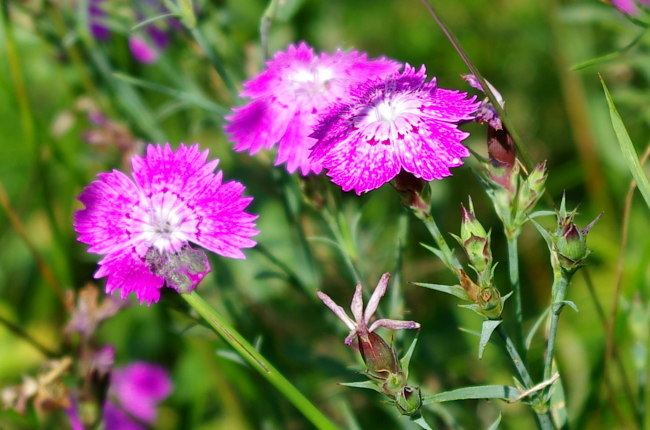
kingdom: Plantae
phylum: Tracheophyta
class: Magnoliopsida
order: Caryophyllales
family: Caryophyllaceae
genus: Dianthus
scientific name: Dianthus chinensis
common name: Rainbow pink
